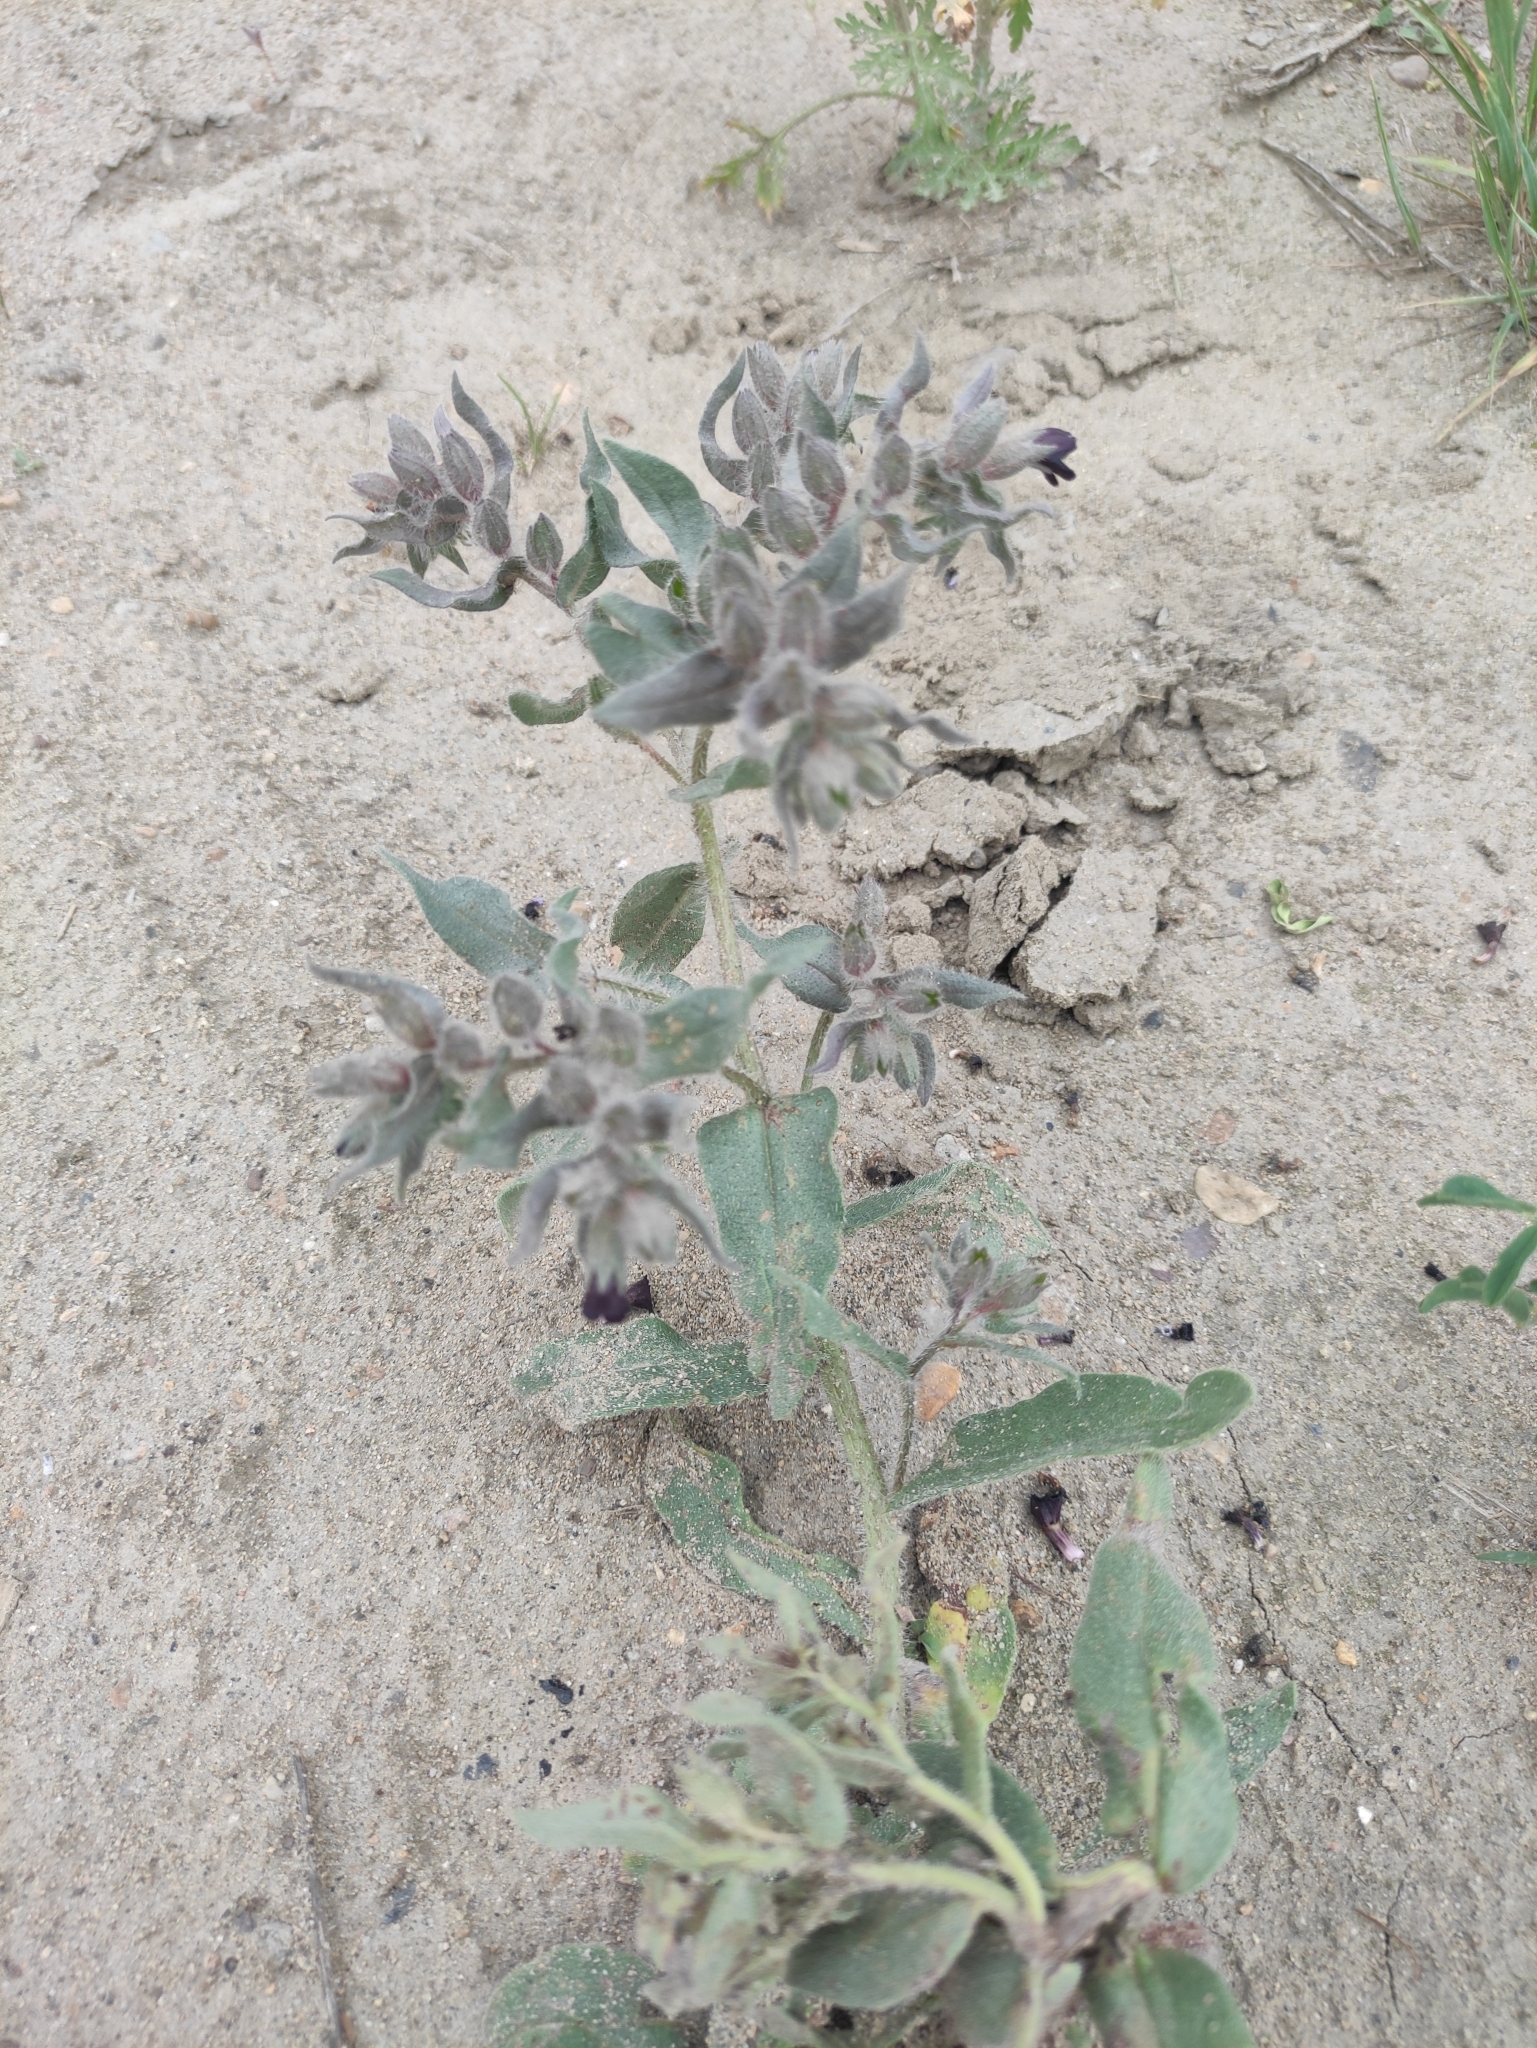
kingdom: Plantae
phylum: Tracheophyta
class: Magnoliopsida
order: Boraginales
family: Boraginaceae
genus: Nonea
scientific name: Nonea pulla
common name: Brown nonea
